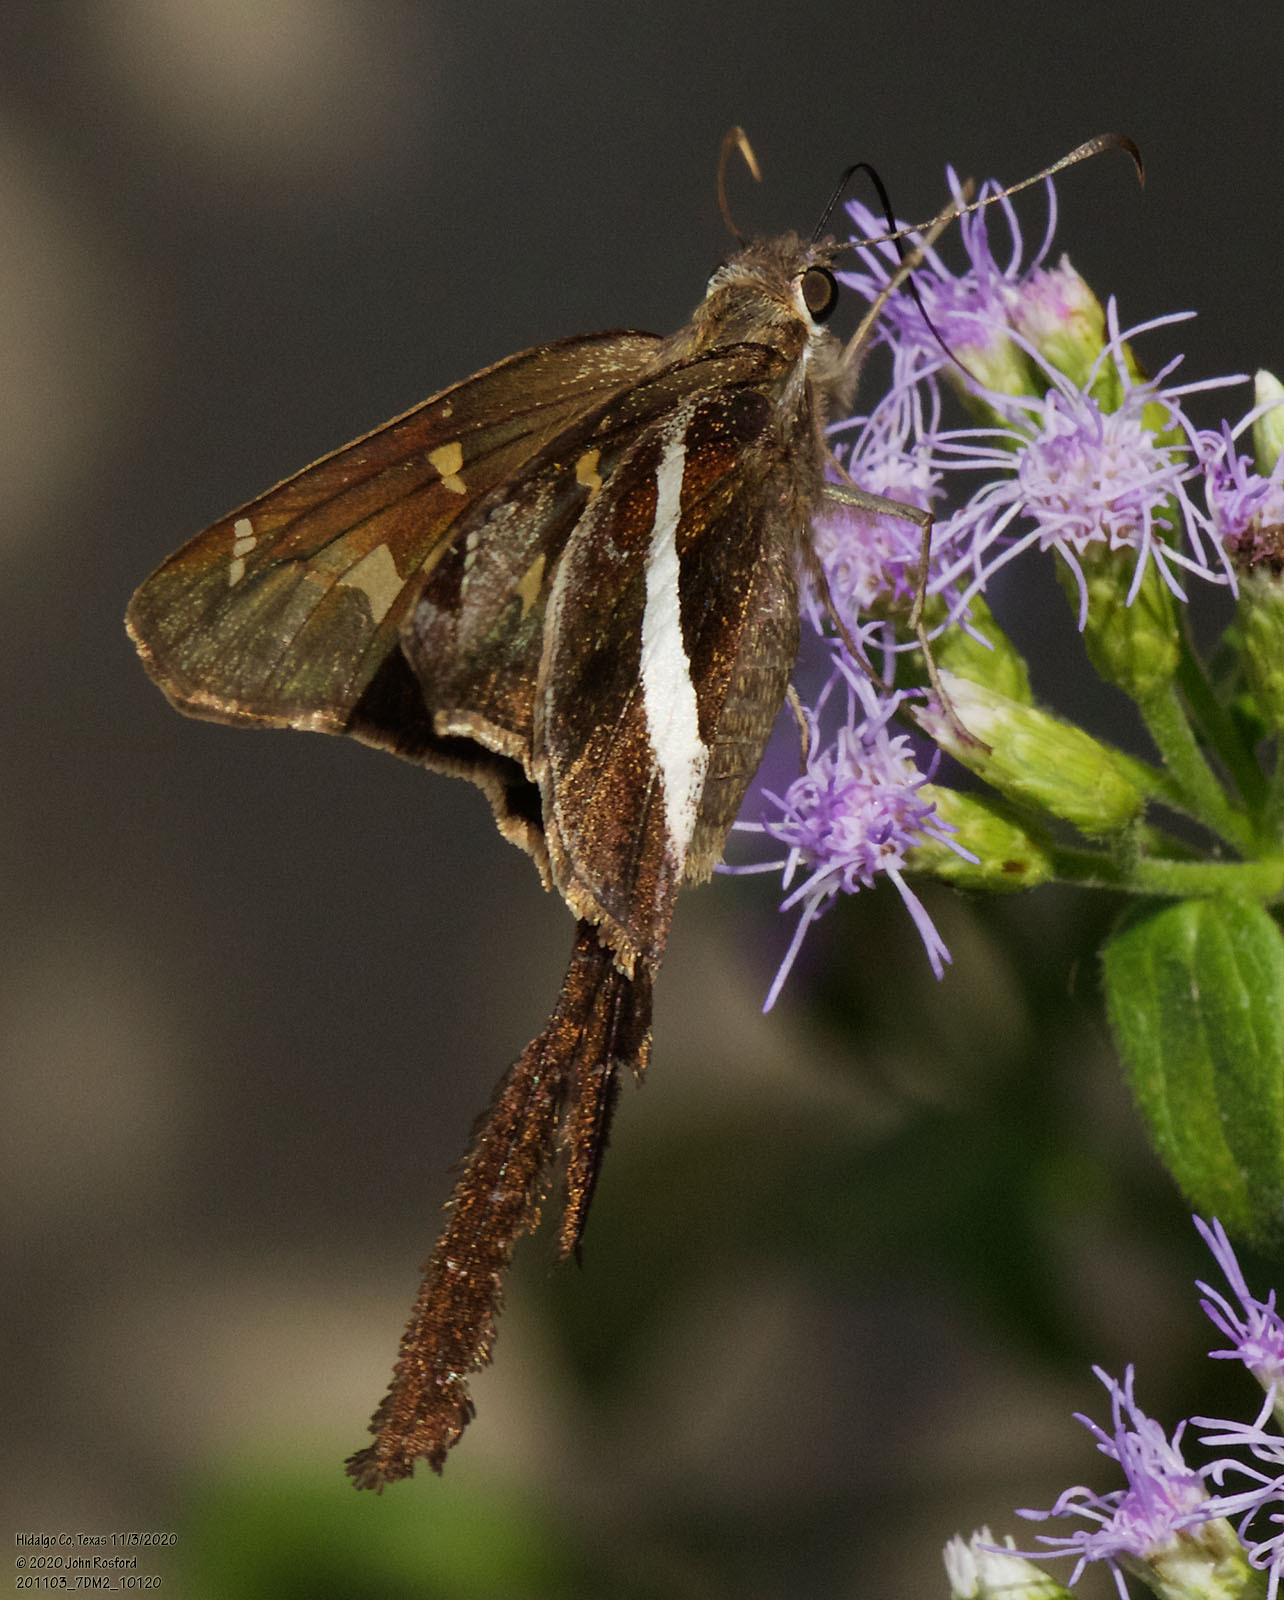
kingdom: Animalia
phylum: Arthropoda
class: Insecta
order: Lepidoptera
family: Hesperiidae
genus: Chioides
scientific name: Chioides catillus
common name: Silverbanded skipper
